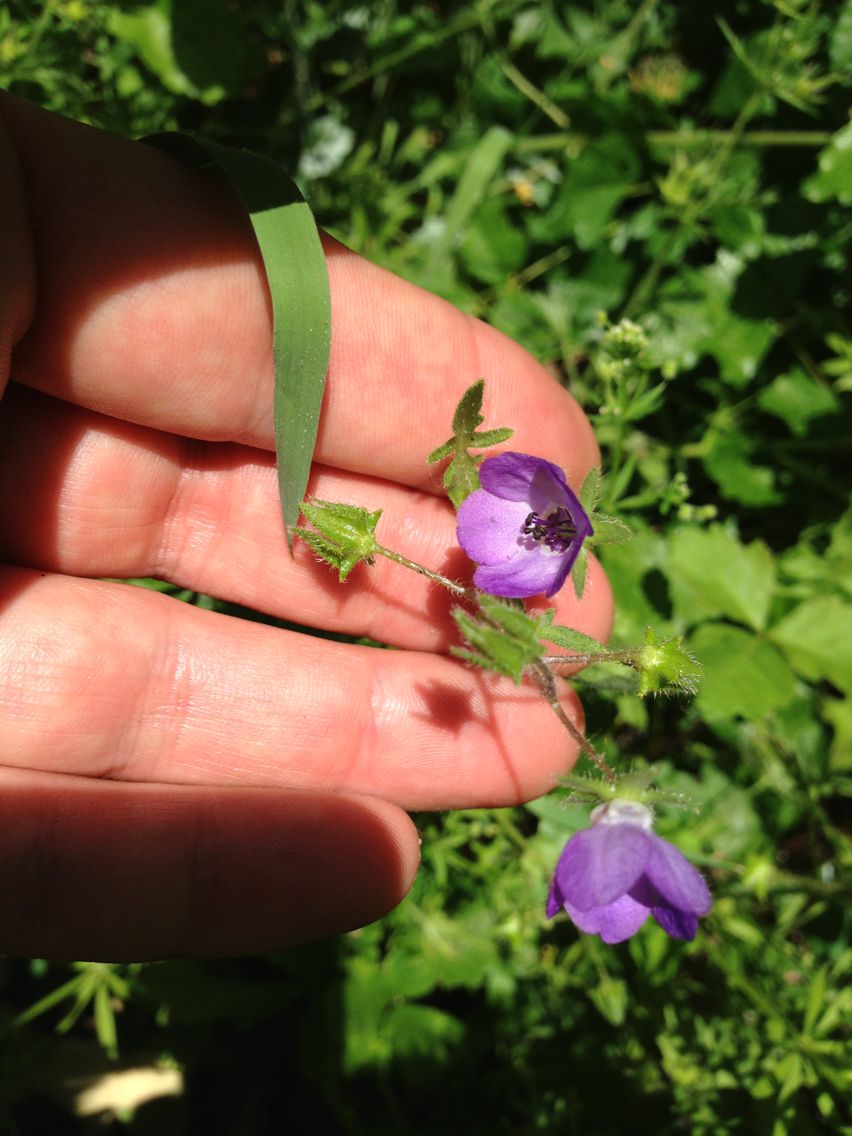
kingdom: Plantae
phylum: Tracheophyta
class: Magnoliopsida
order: Boraginales
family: Hydrophyllaceae
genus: Pholistoma
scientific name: Pholistoma auritum
